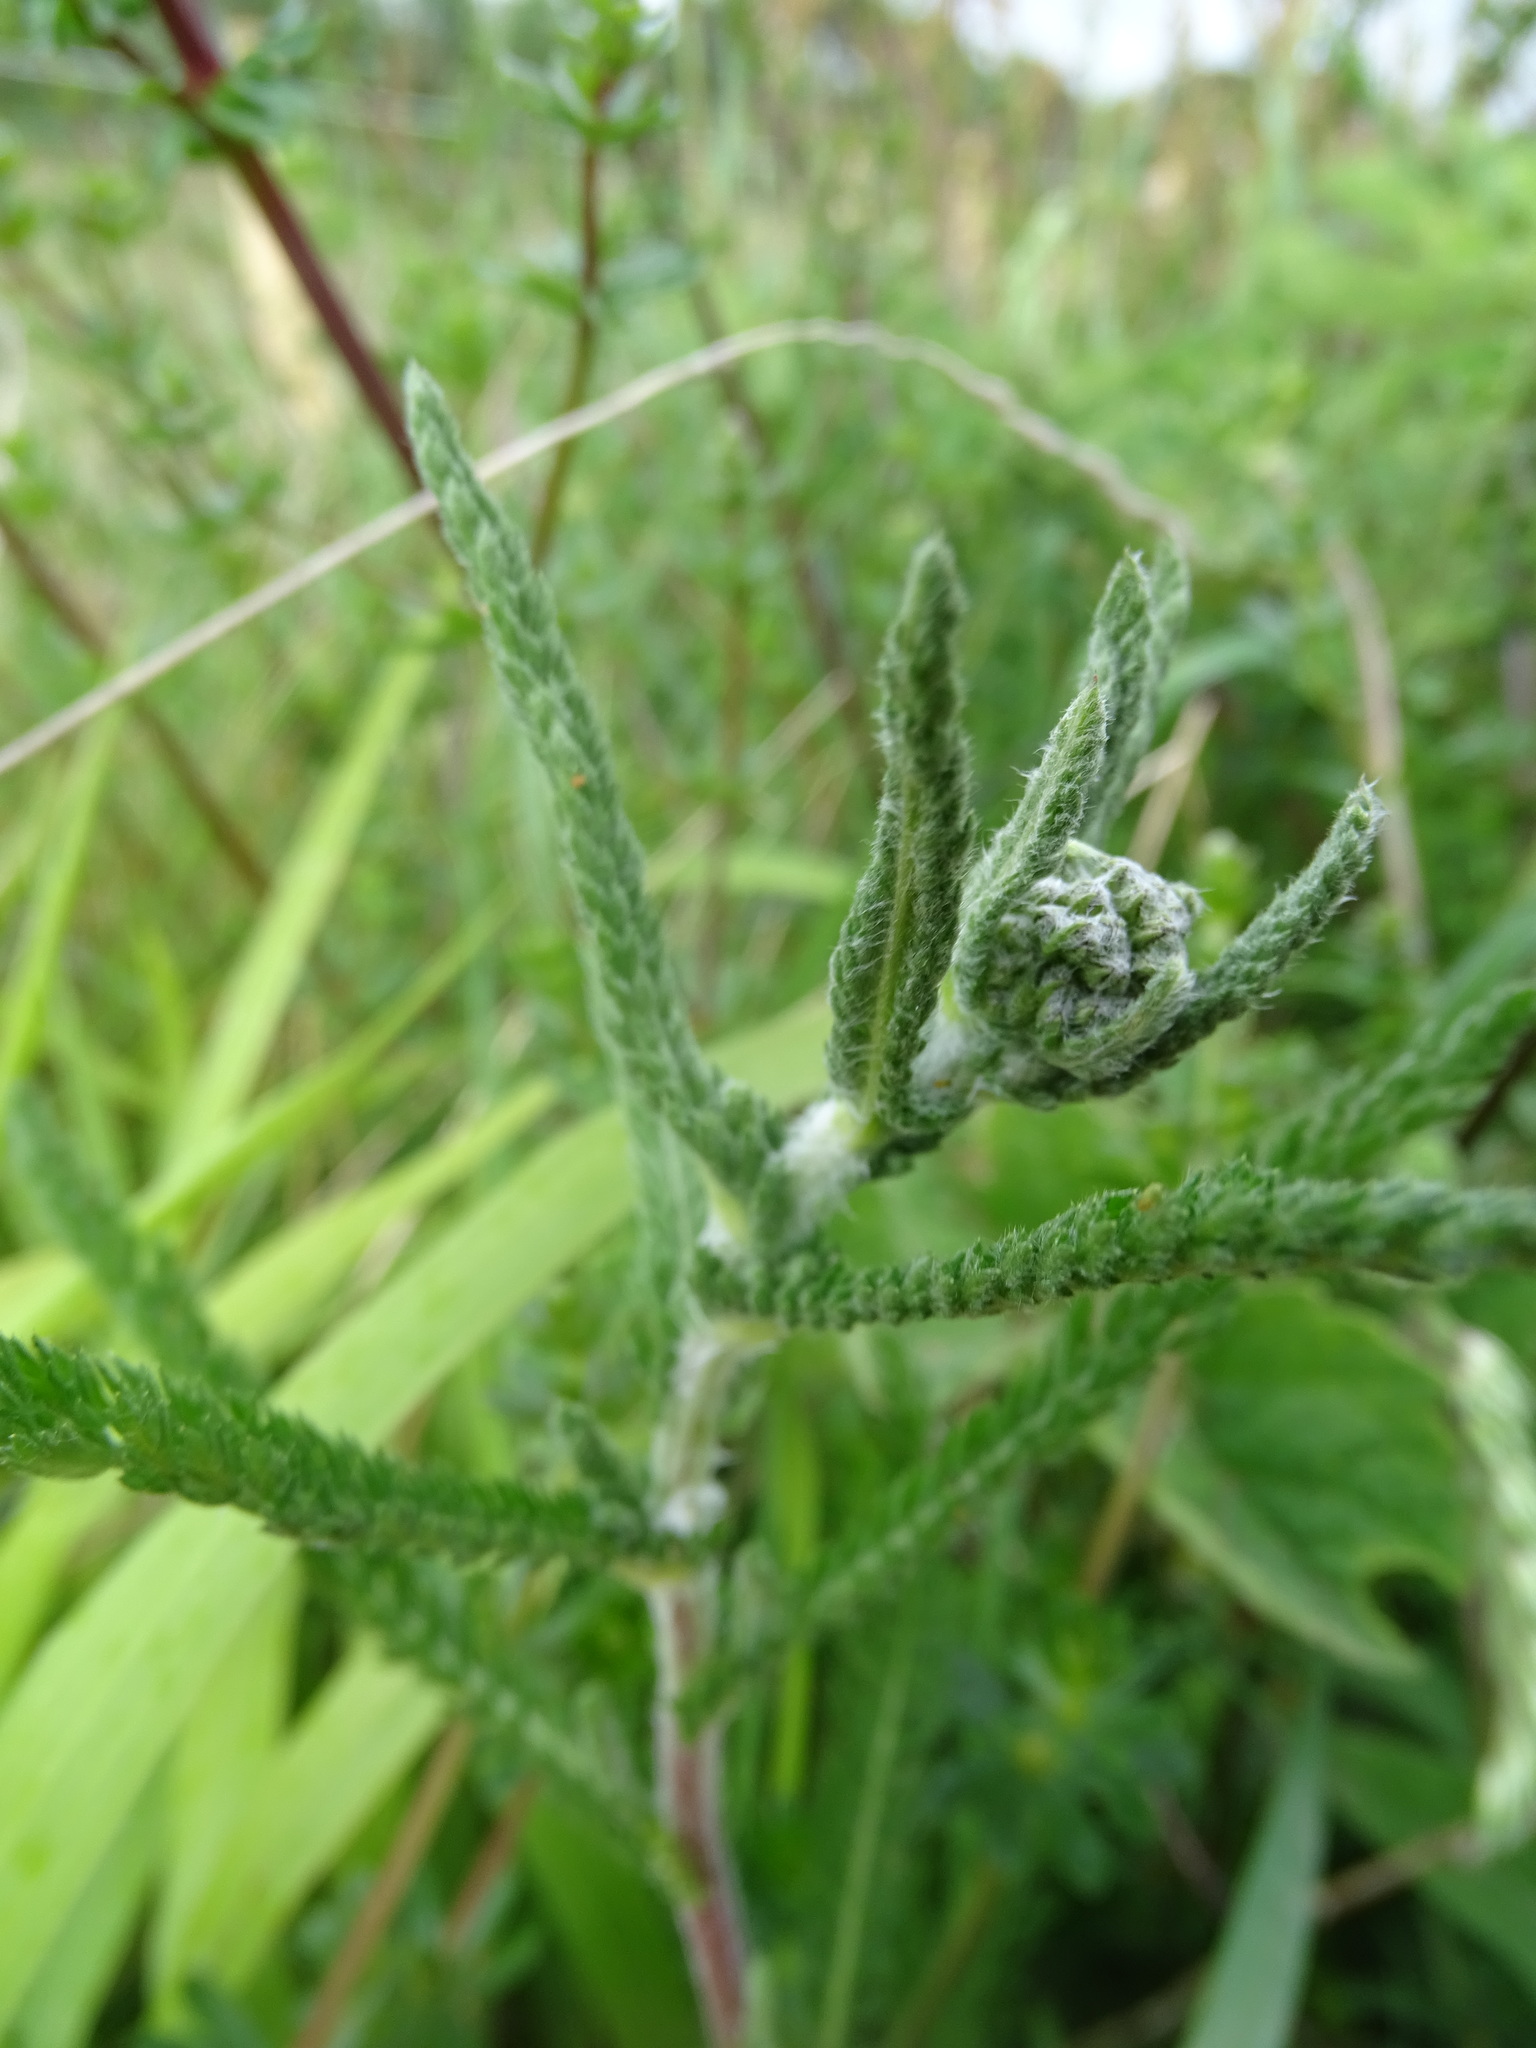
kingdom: Plantae
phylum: Tracheophyta
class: Magnoliopsida
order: Asterales
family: Asteraceae
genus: Achillea
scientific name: Achillea millefolium
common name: Yarrow
